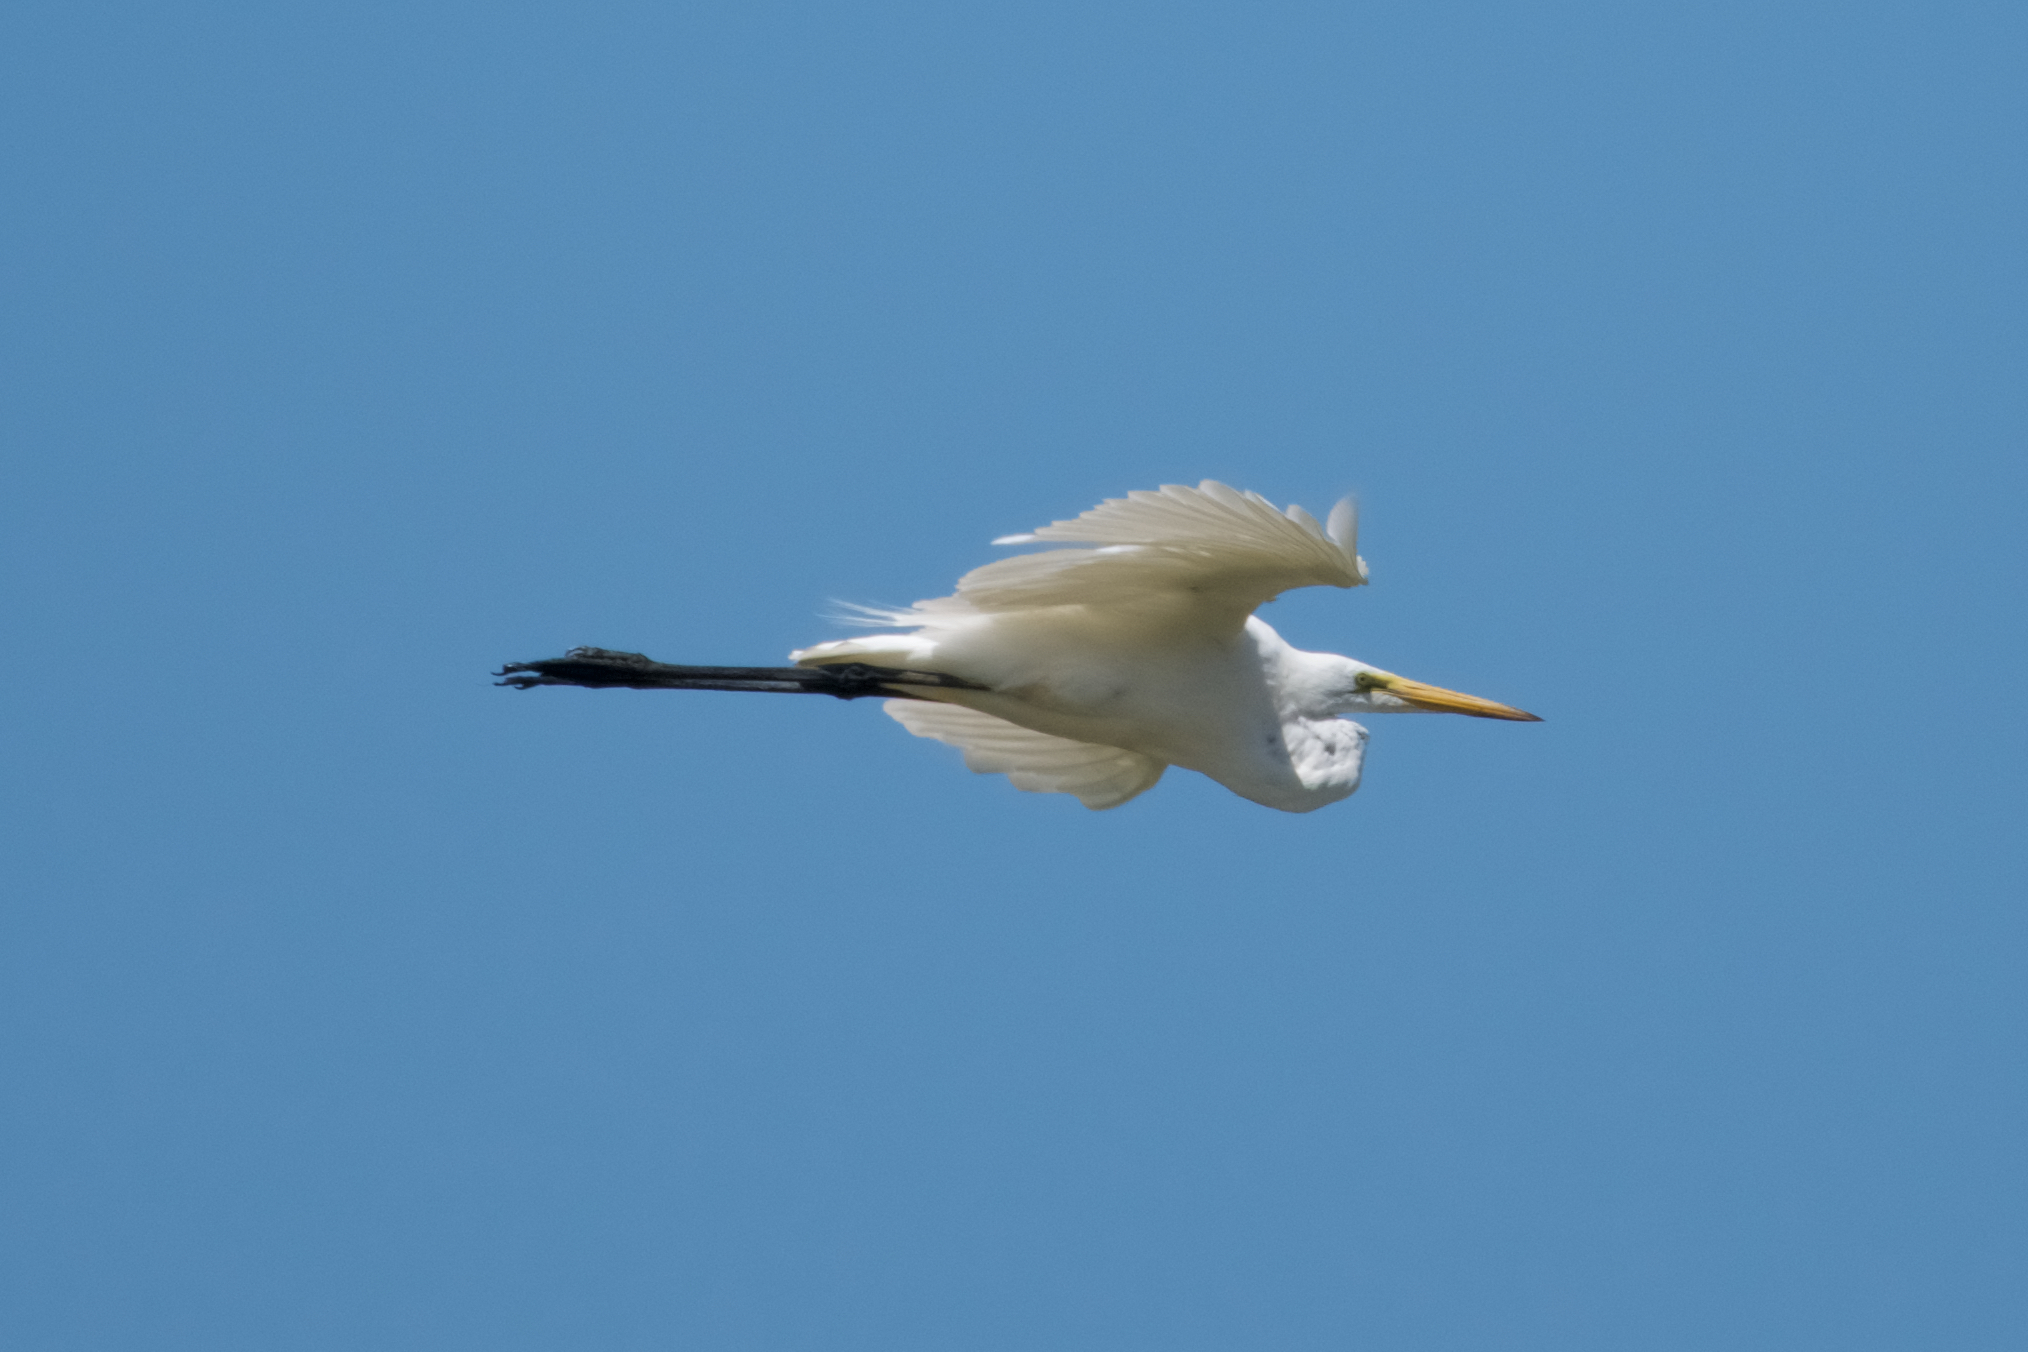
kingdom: Animalia
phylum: Chordata
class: Aves
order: Pelecaniformes
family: Ardeidae
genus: Ardea
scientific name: Ardea alba
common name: Great egret
